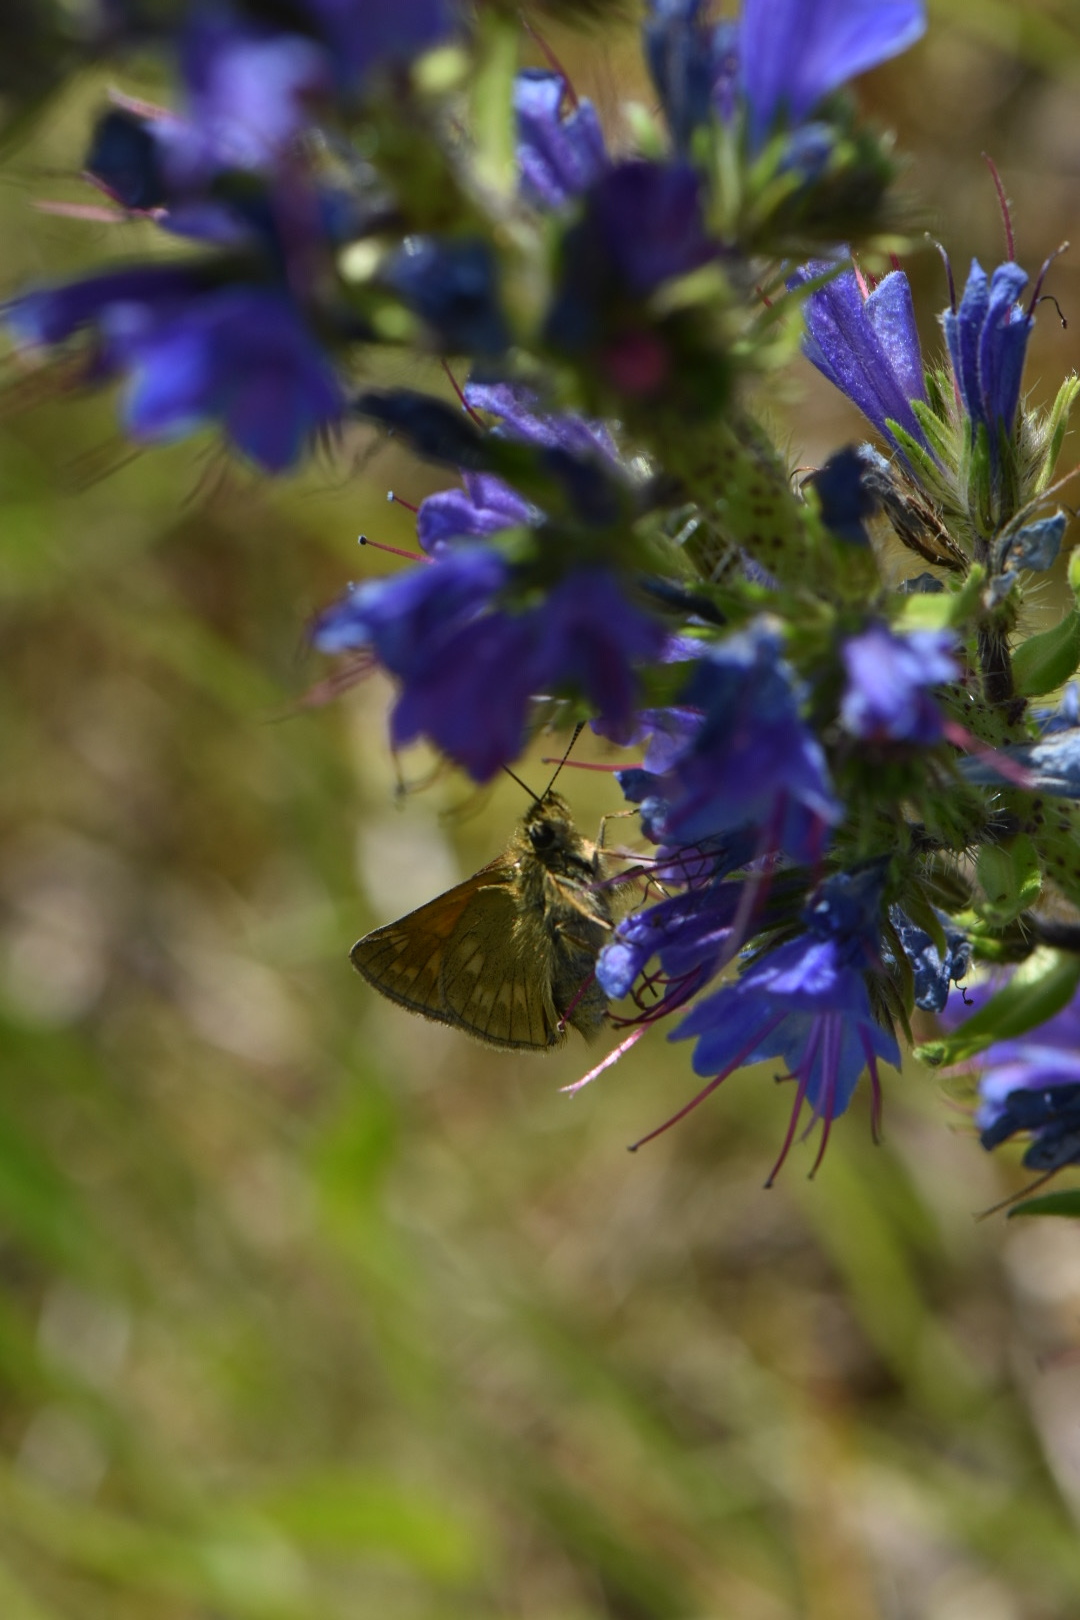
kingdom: Animalia
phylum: Arthropoda
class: Insecta
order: Lepidoptera
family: Hesperiidae
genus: Ochlodes
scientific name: Ochlodes venata
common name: Large skipper
